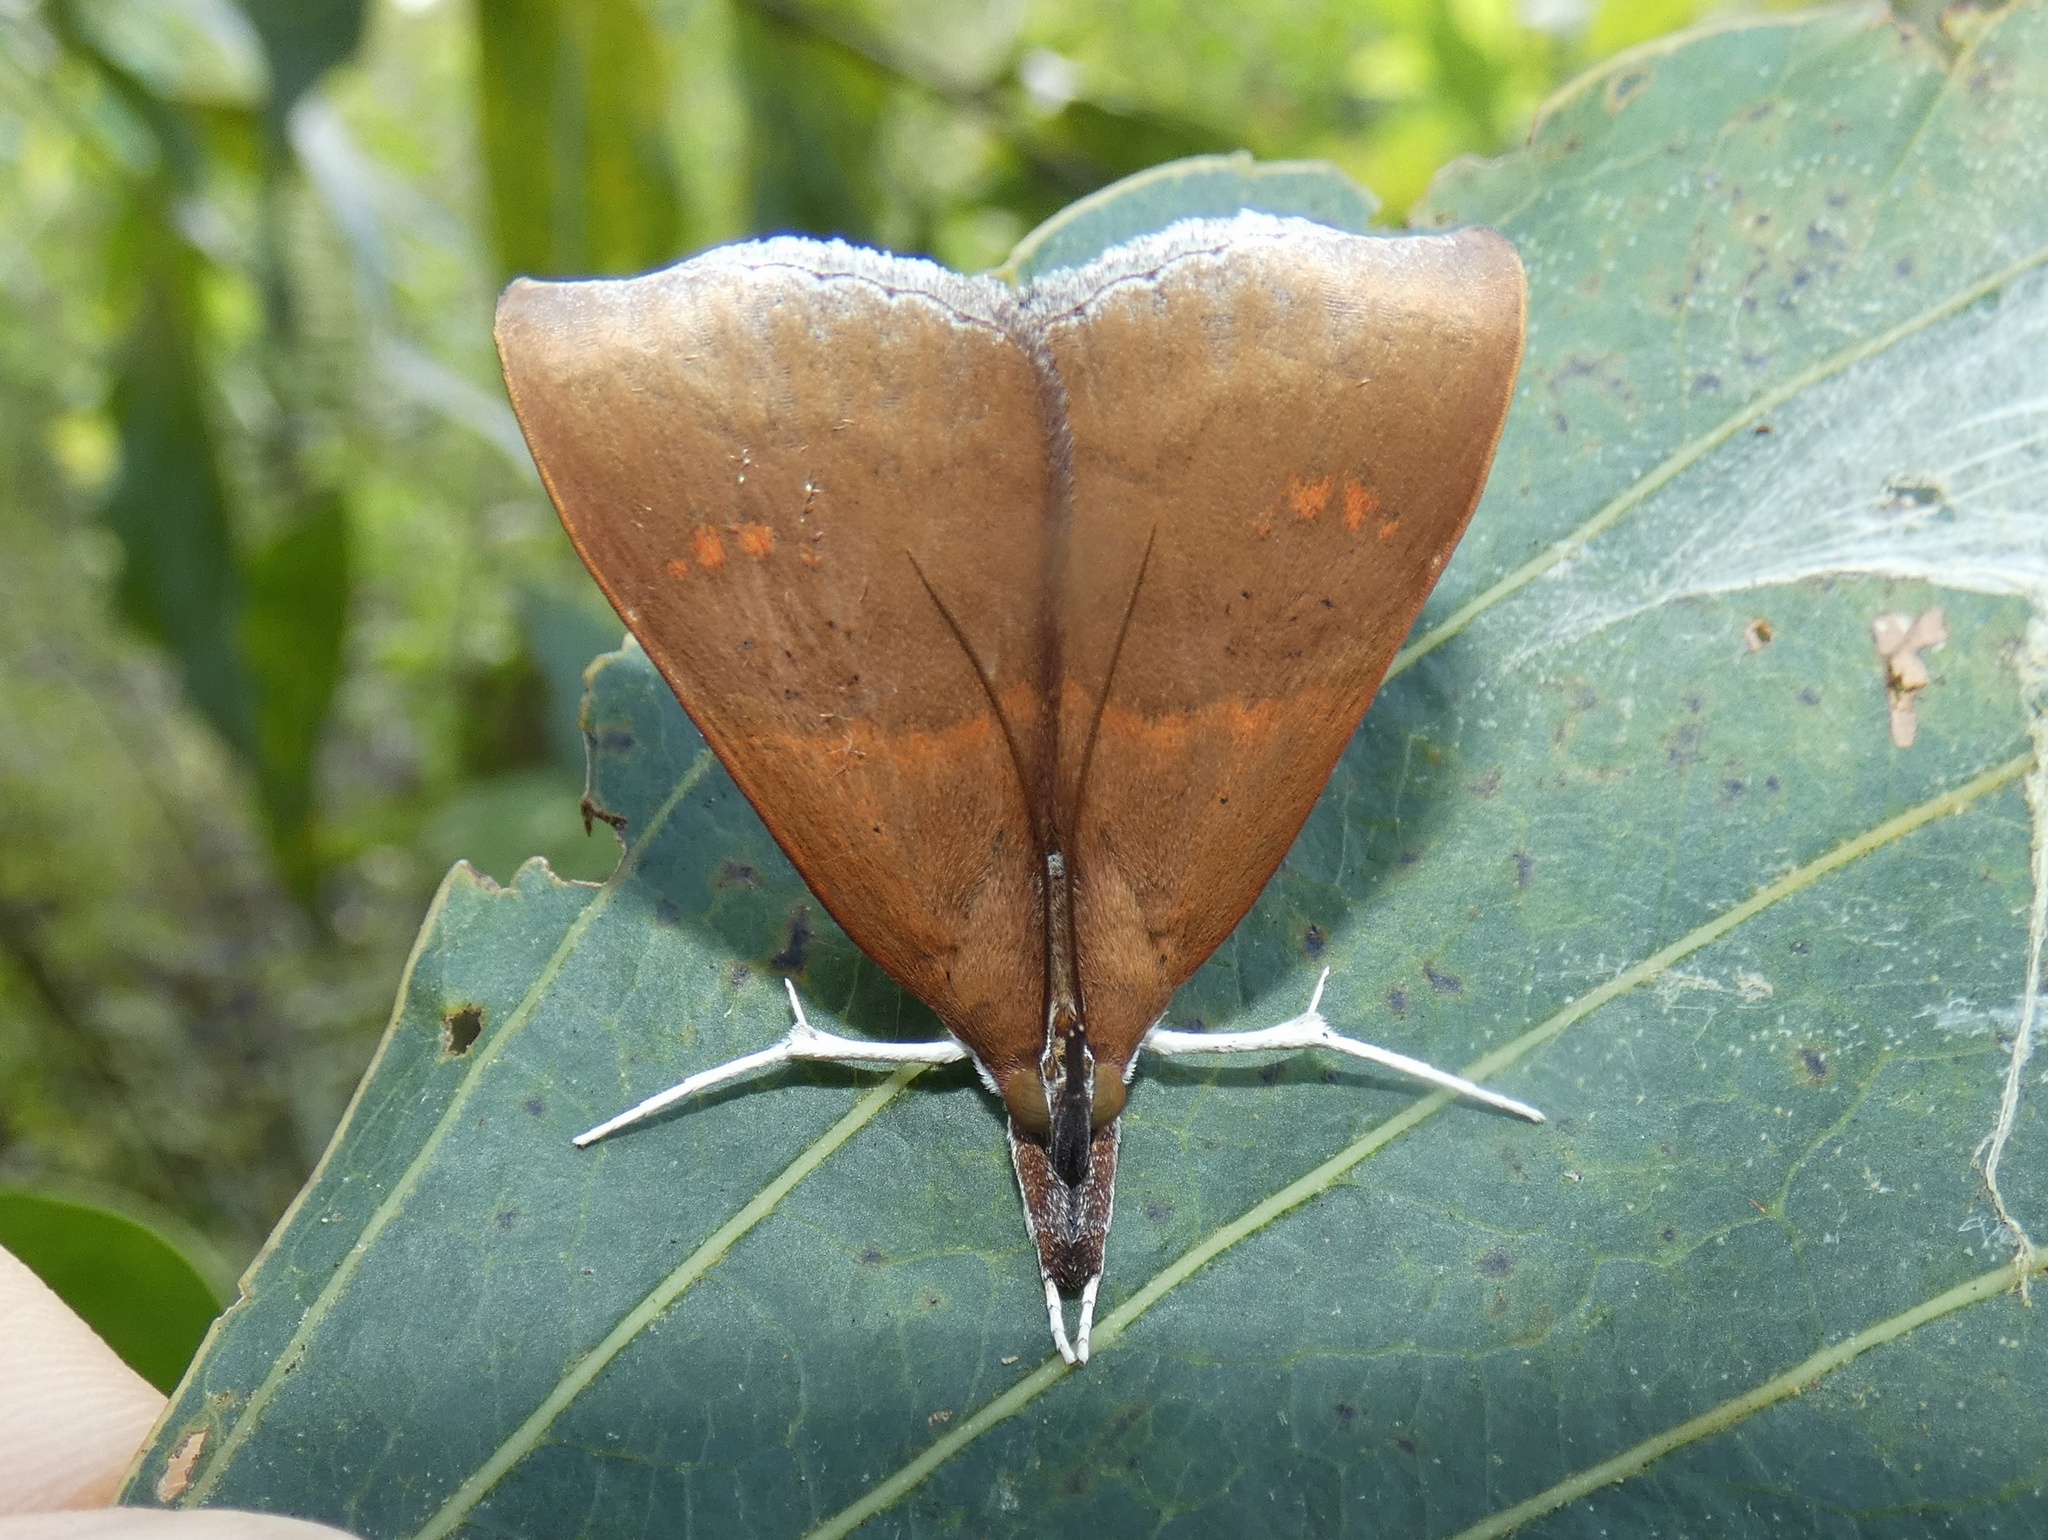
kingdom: Animalia
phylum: Arthropoda
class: Insecta
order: Lepidoptera
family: Erebidae
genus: Sympis
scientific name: Sympis parkeri
